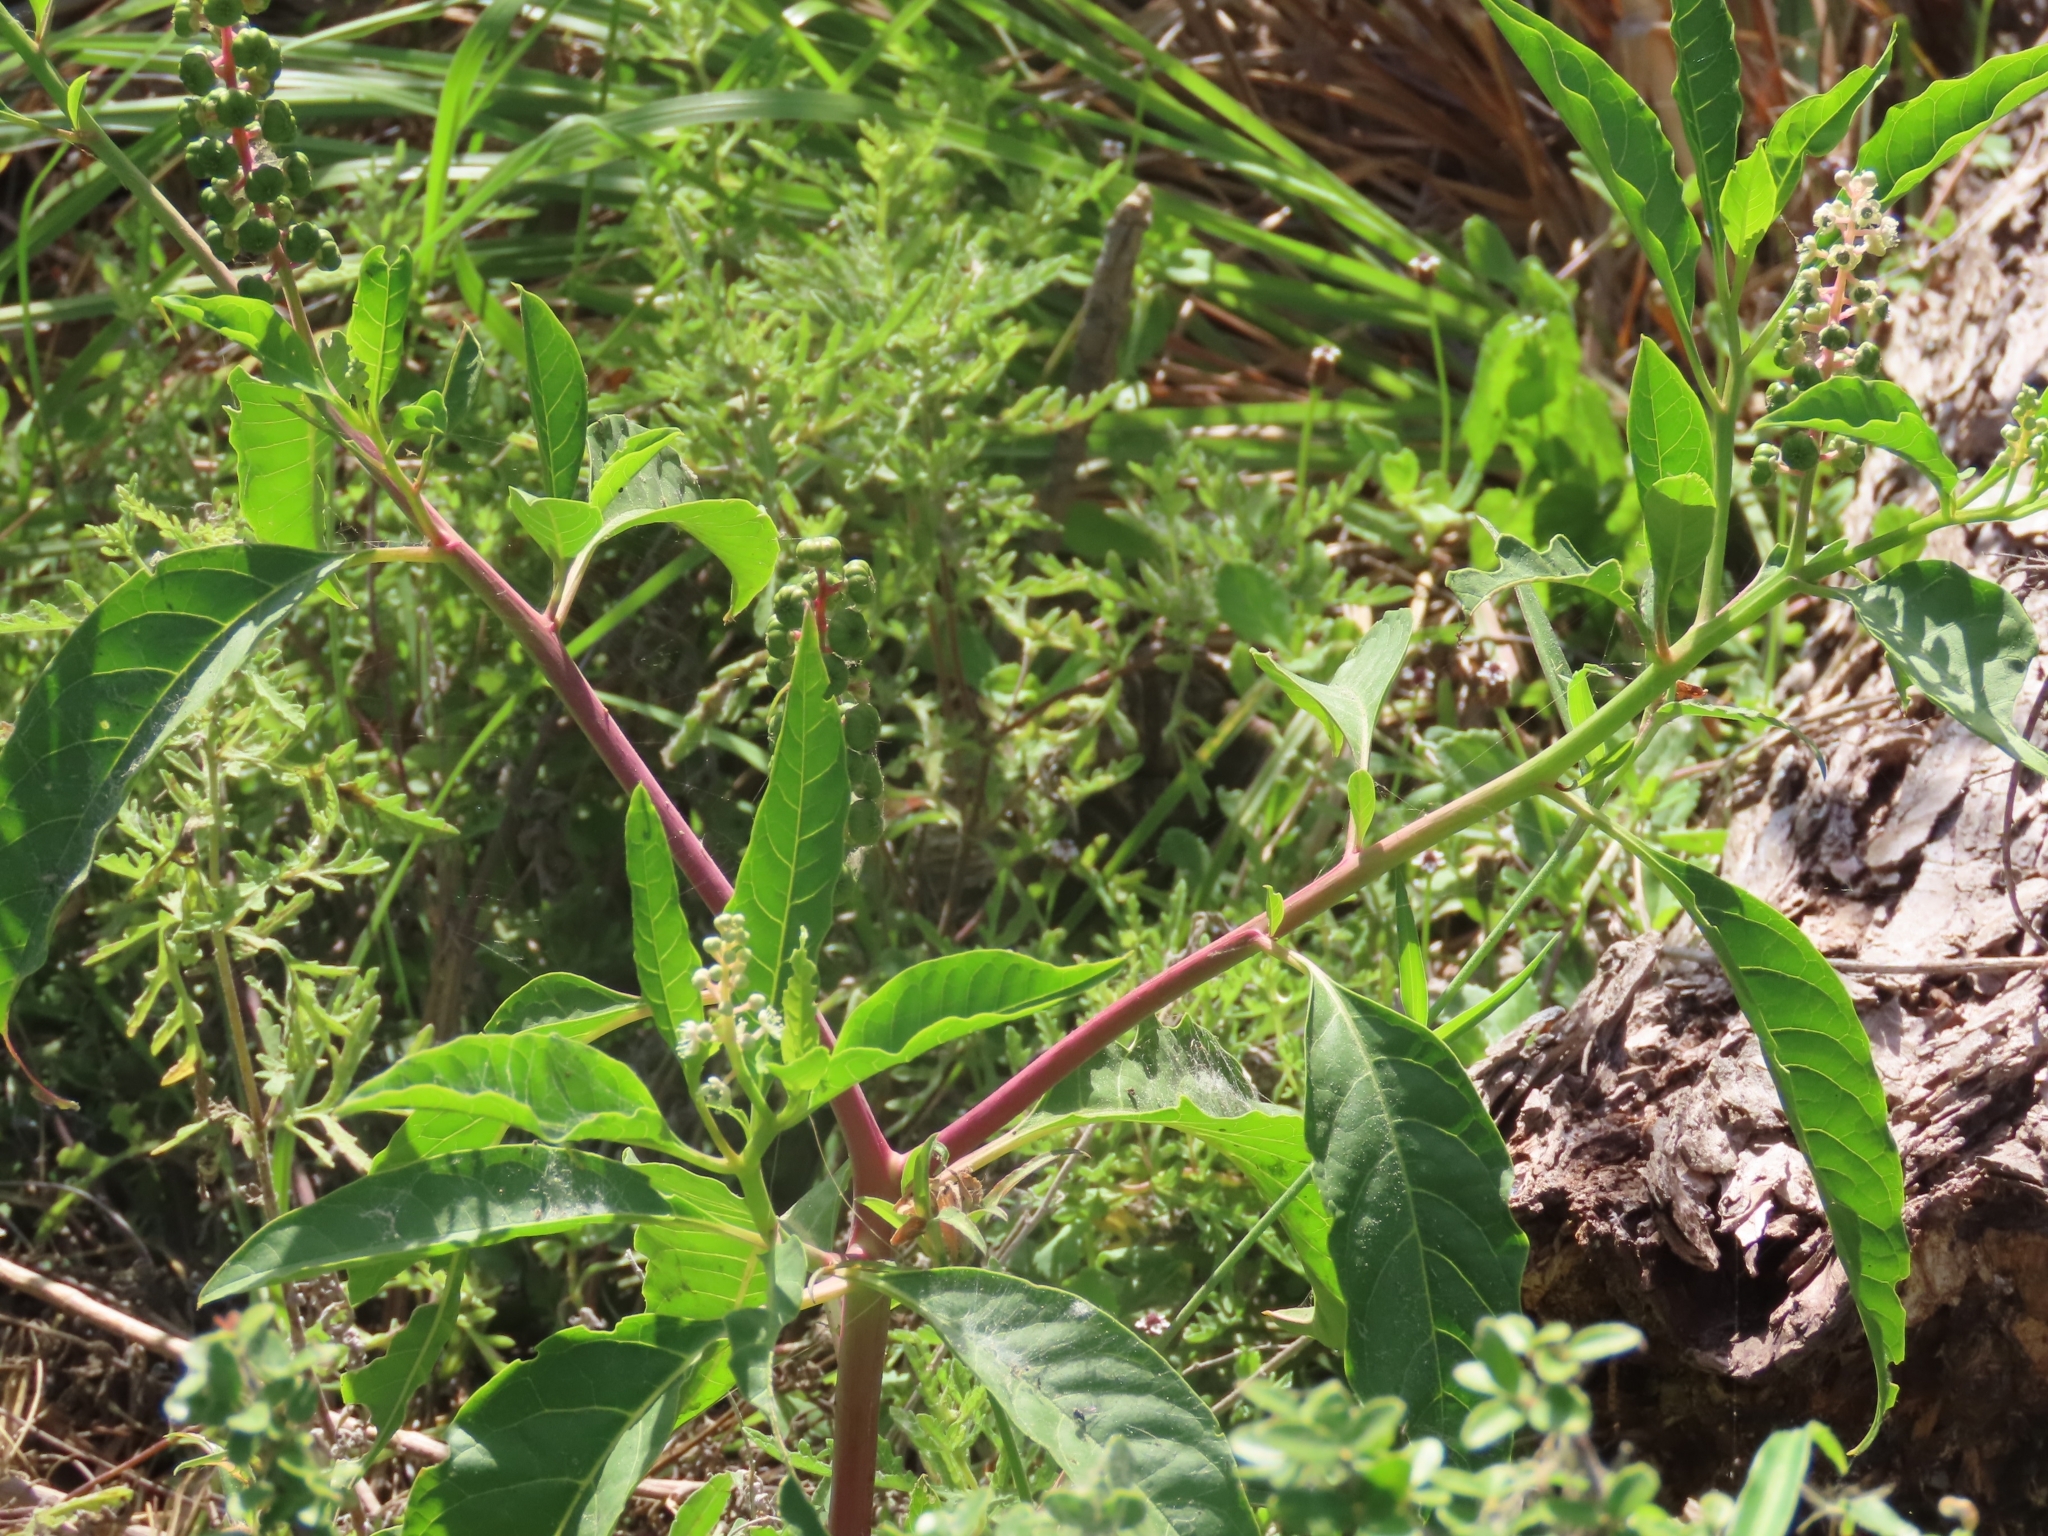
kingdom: Plantae
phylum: Tracheophyta
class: Magnoliopsida
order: Caryophyllales
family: Phytolaccaceae
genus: Phytolacca
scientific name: Phytolacca americana
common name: American pokeweed
